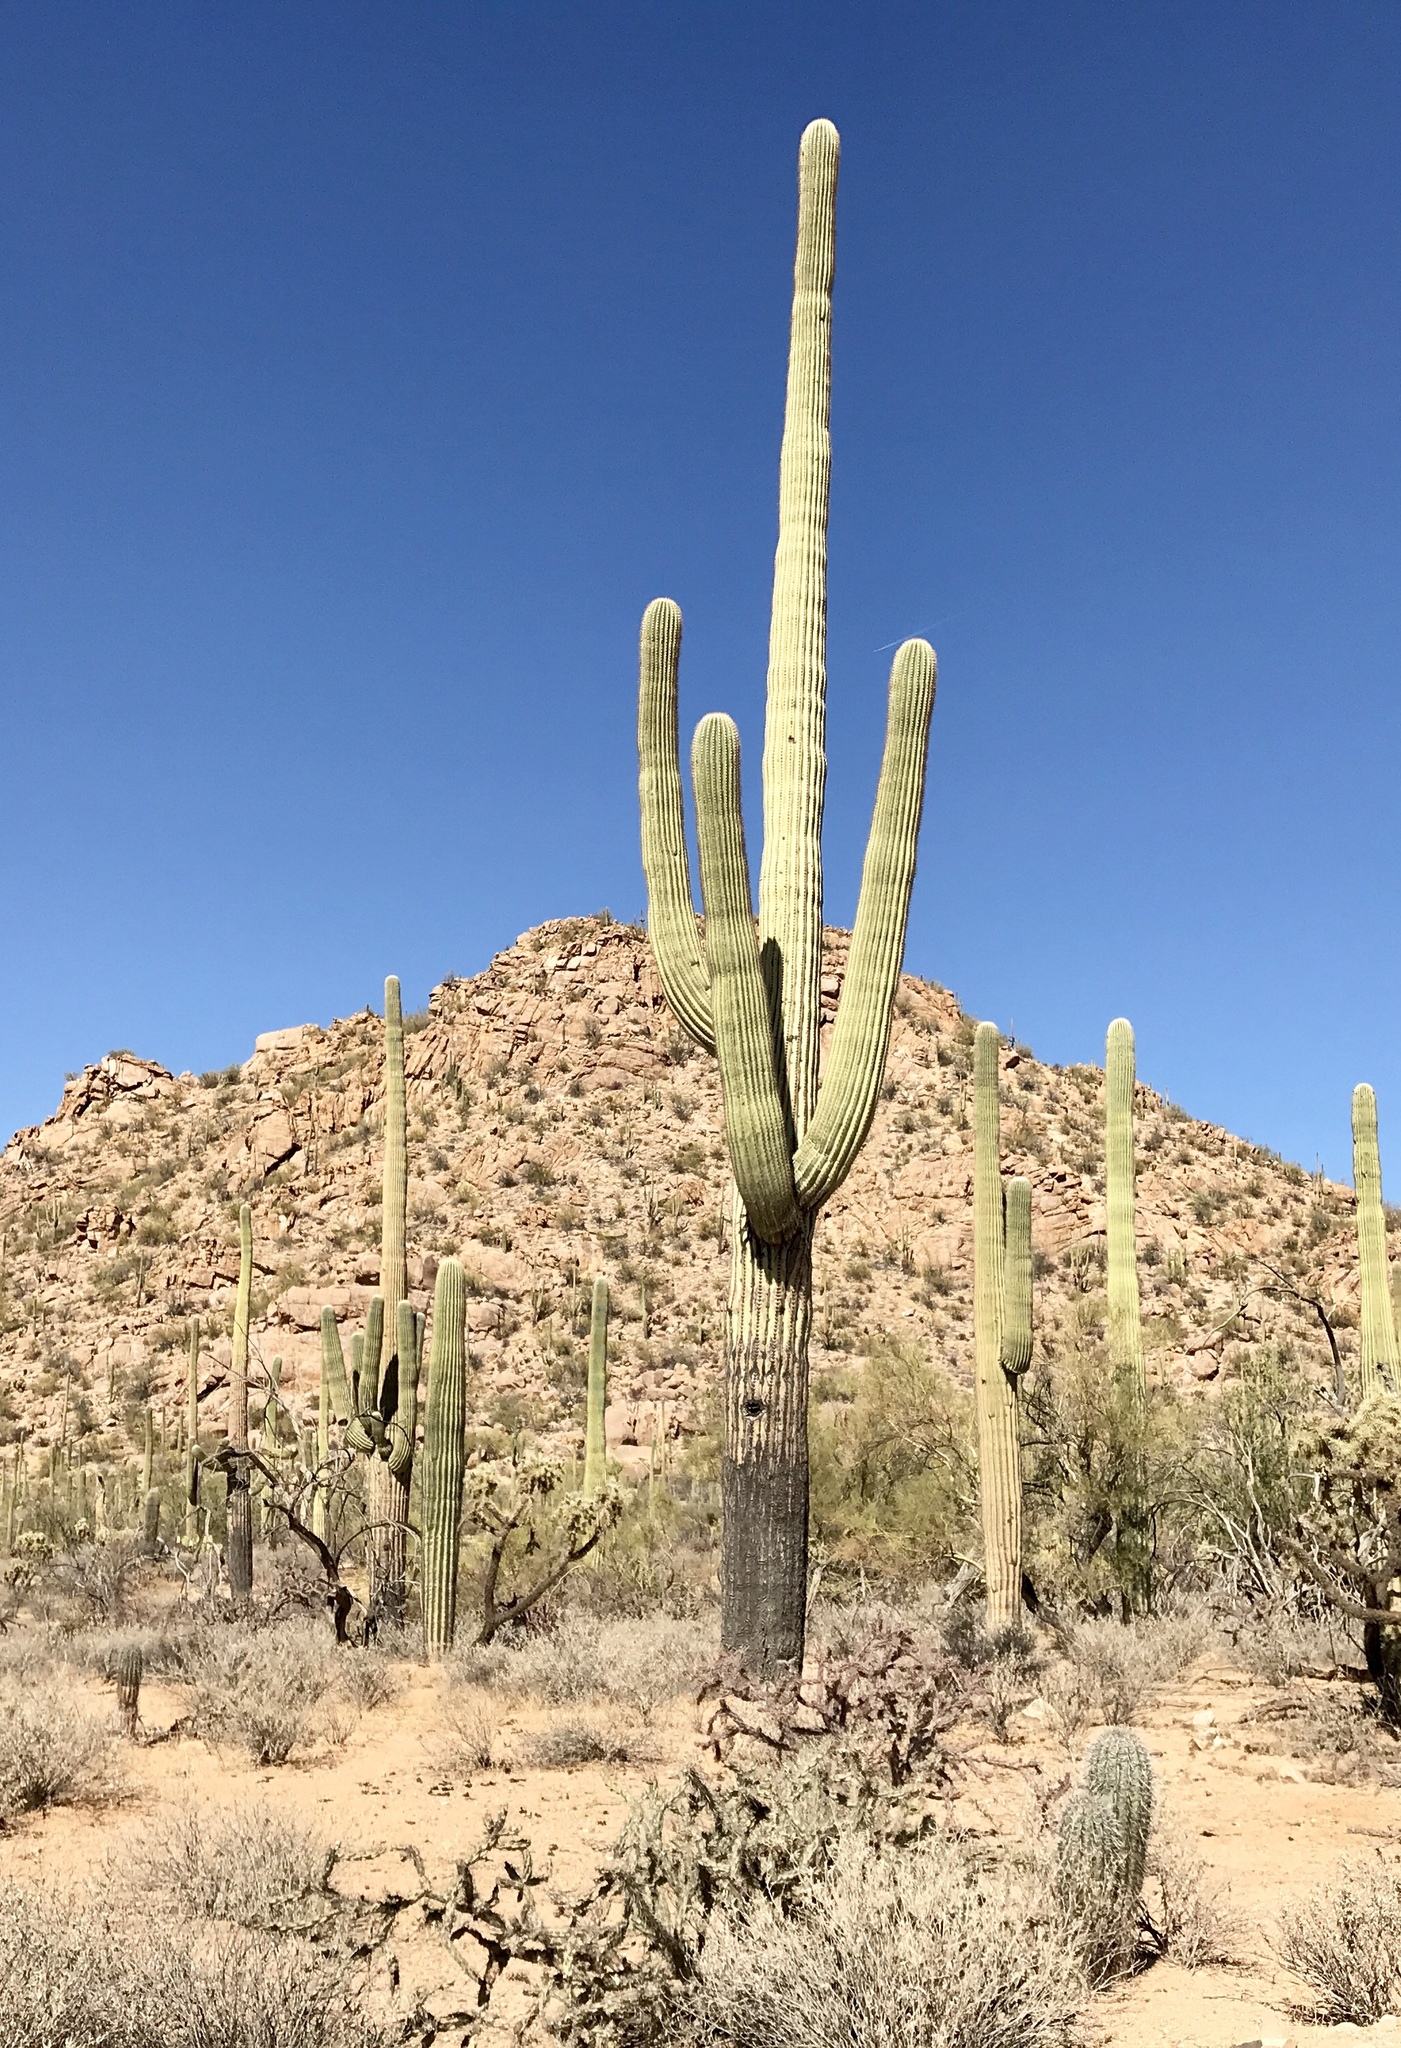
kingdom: Plantae
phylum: Tracheophyta
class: Magnoliopsida
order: Caryophyllales
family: Cactaceae
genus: Carnegiea
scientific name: Carnegiea gigantea
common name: Saguaro
